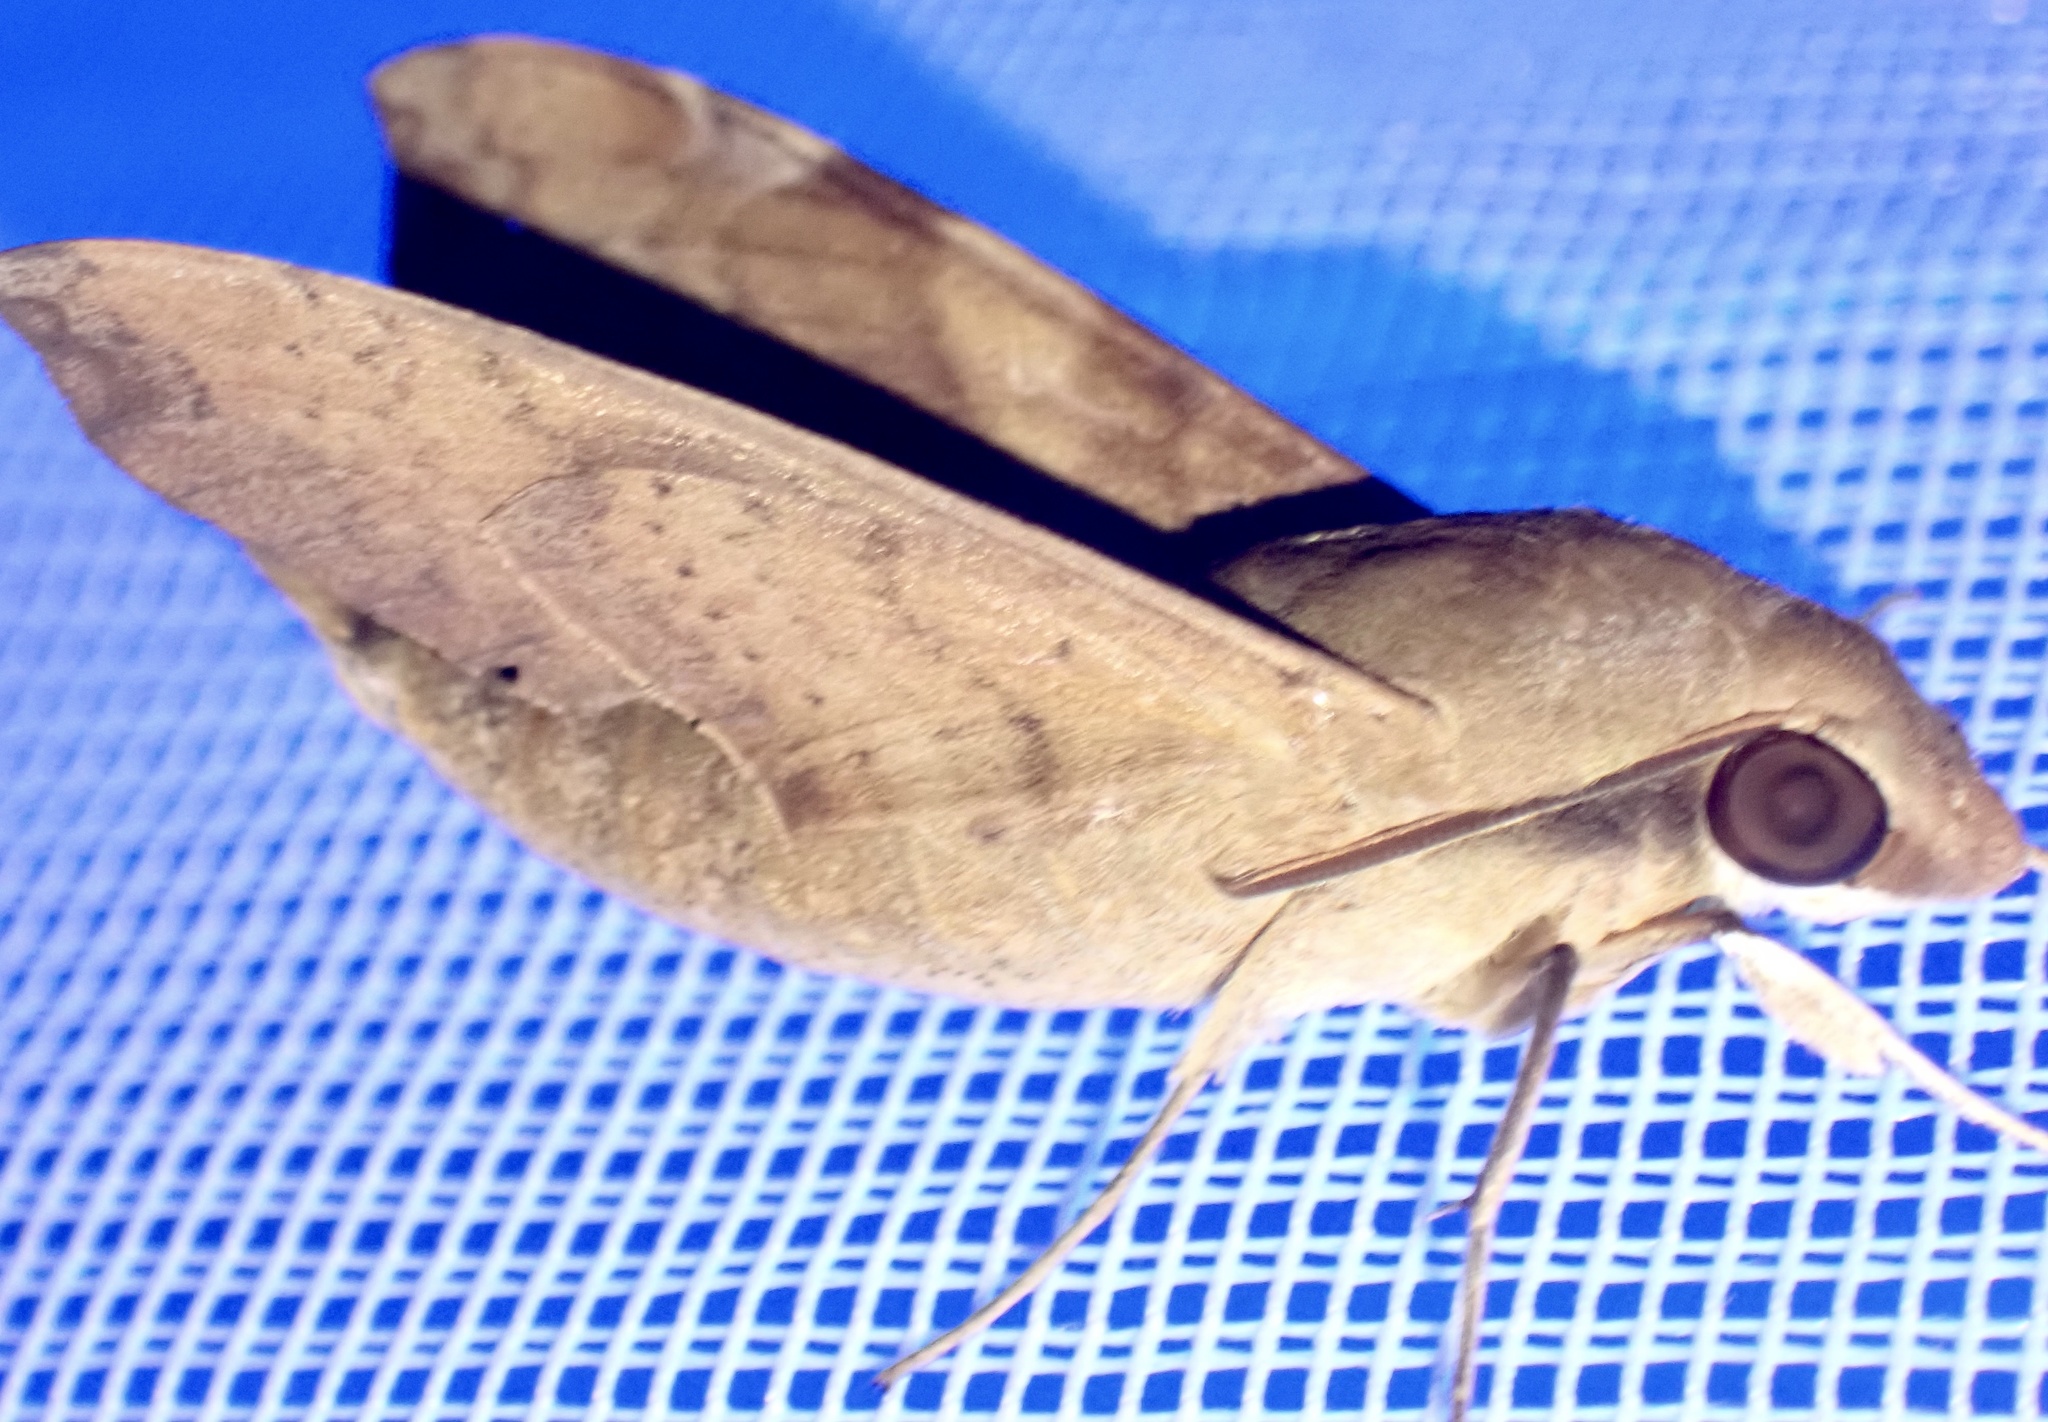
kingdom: Animalia
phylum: Arthropoda
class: Insecta
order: Lepidoptera
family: Sphingidae
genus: Temnora
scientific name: Temnora fumosa
